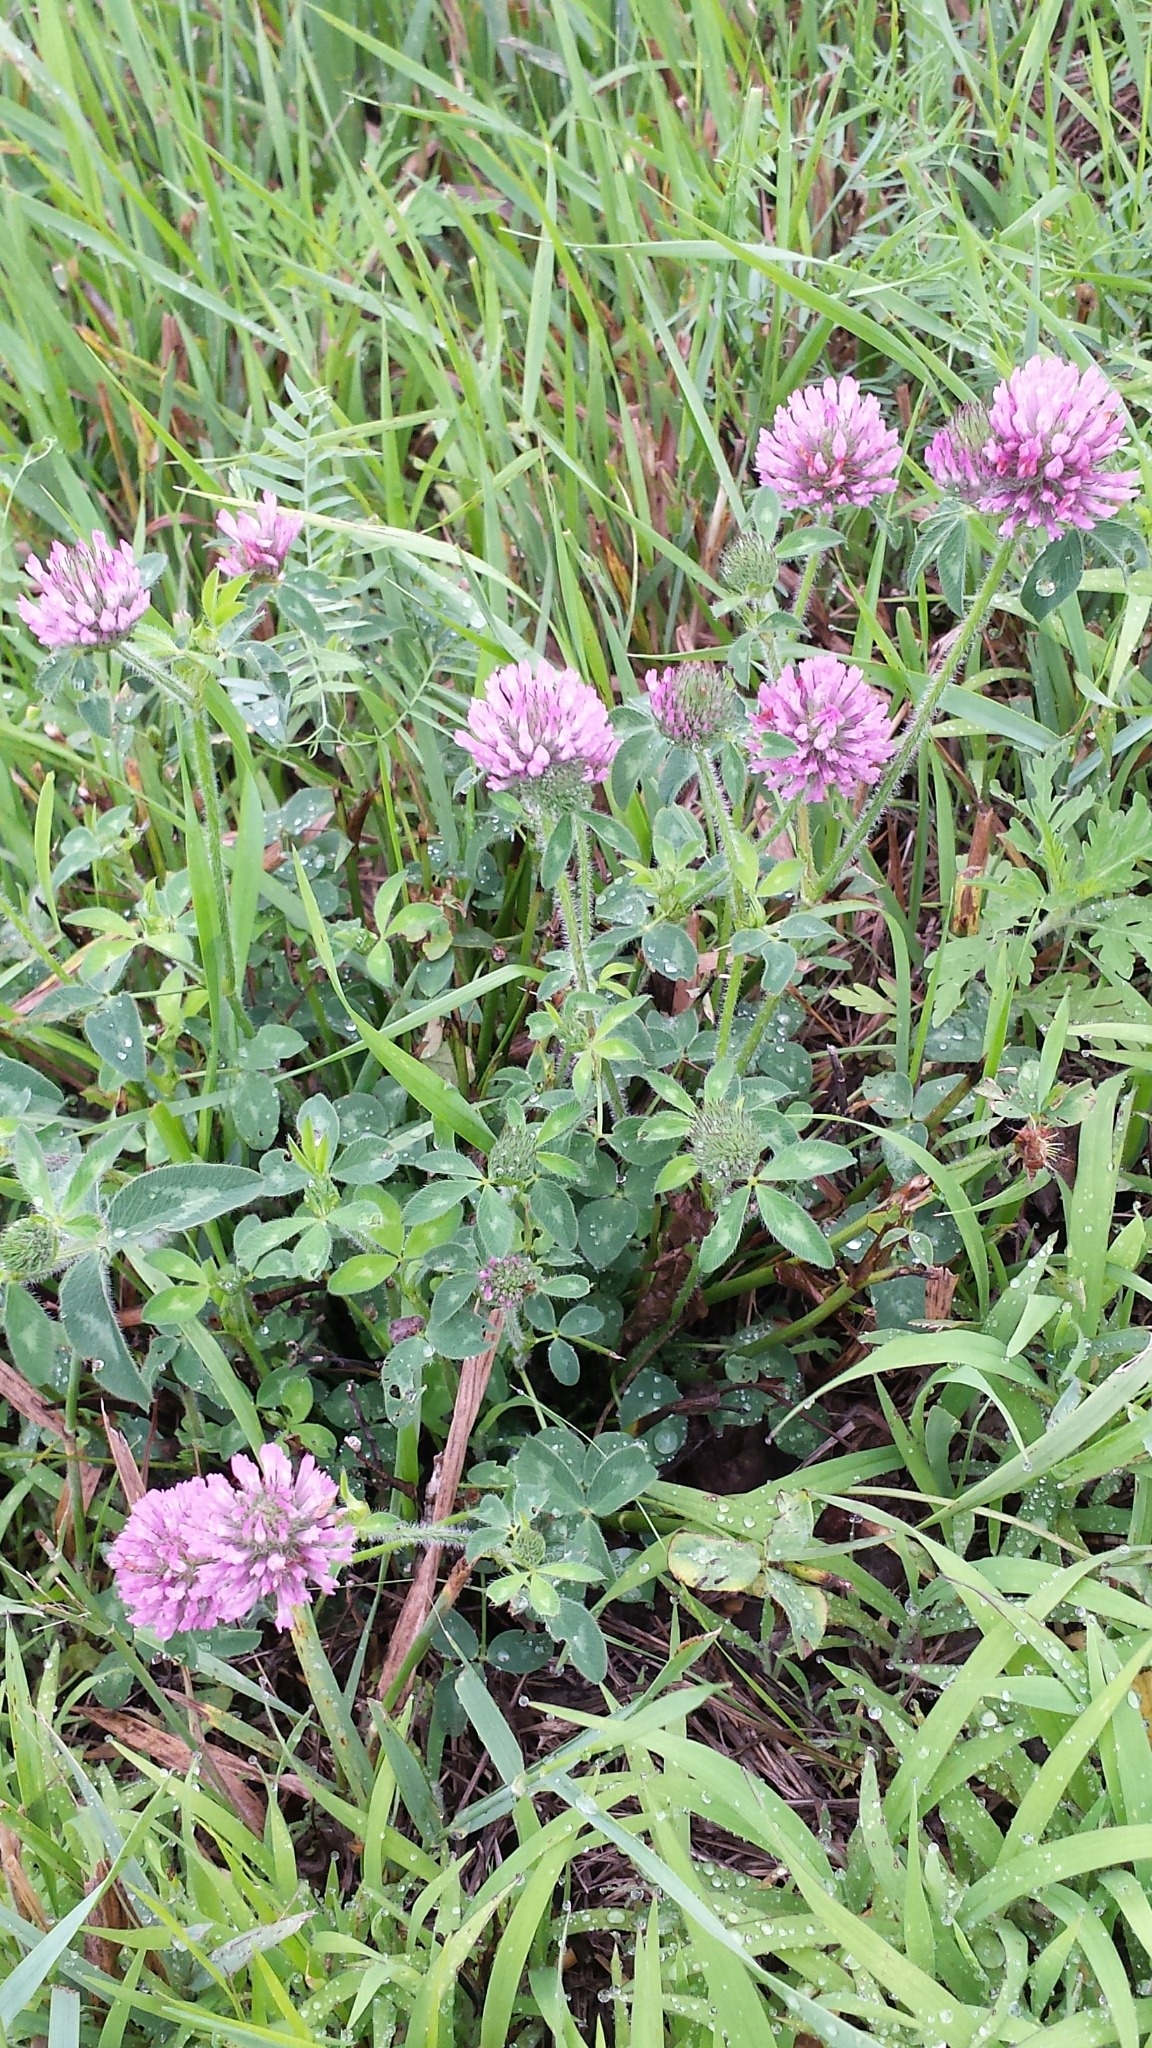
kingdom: Plantae
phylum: Tracheophyta
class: Magnoliopsida
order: Fabales
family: Fabaceae
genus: Trifolium
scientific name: Trifolium pratense
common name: Red clover
